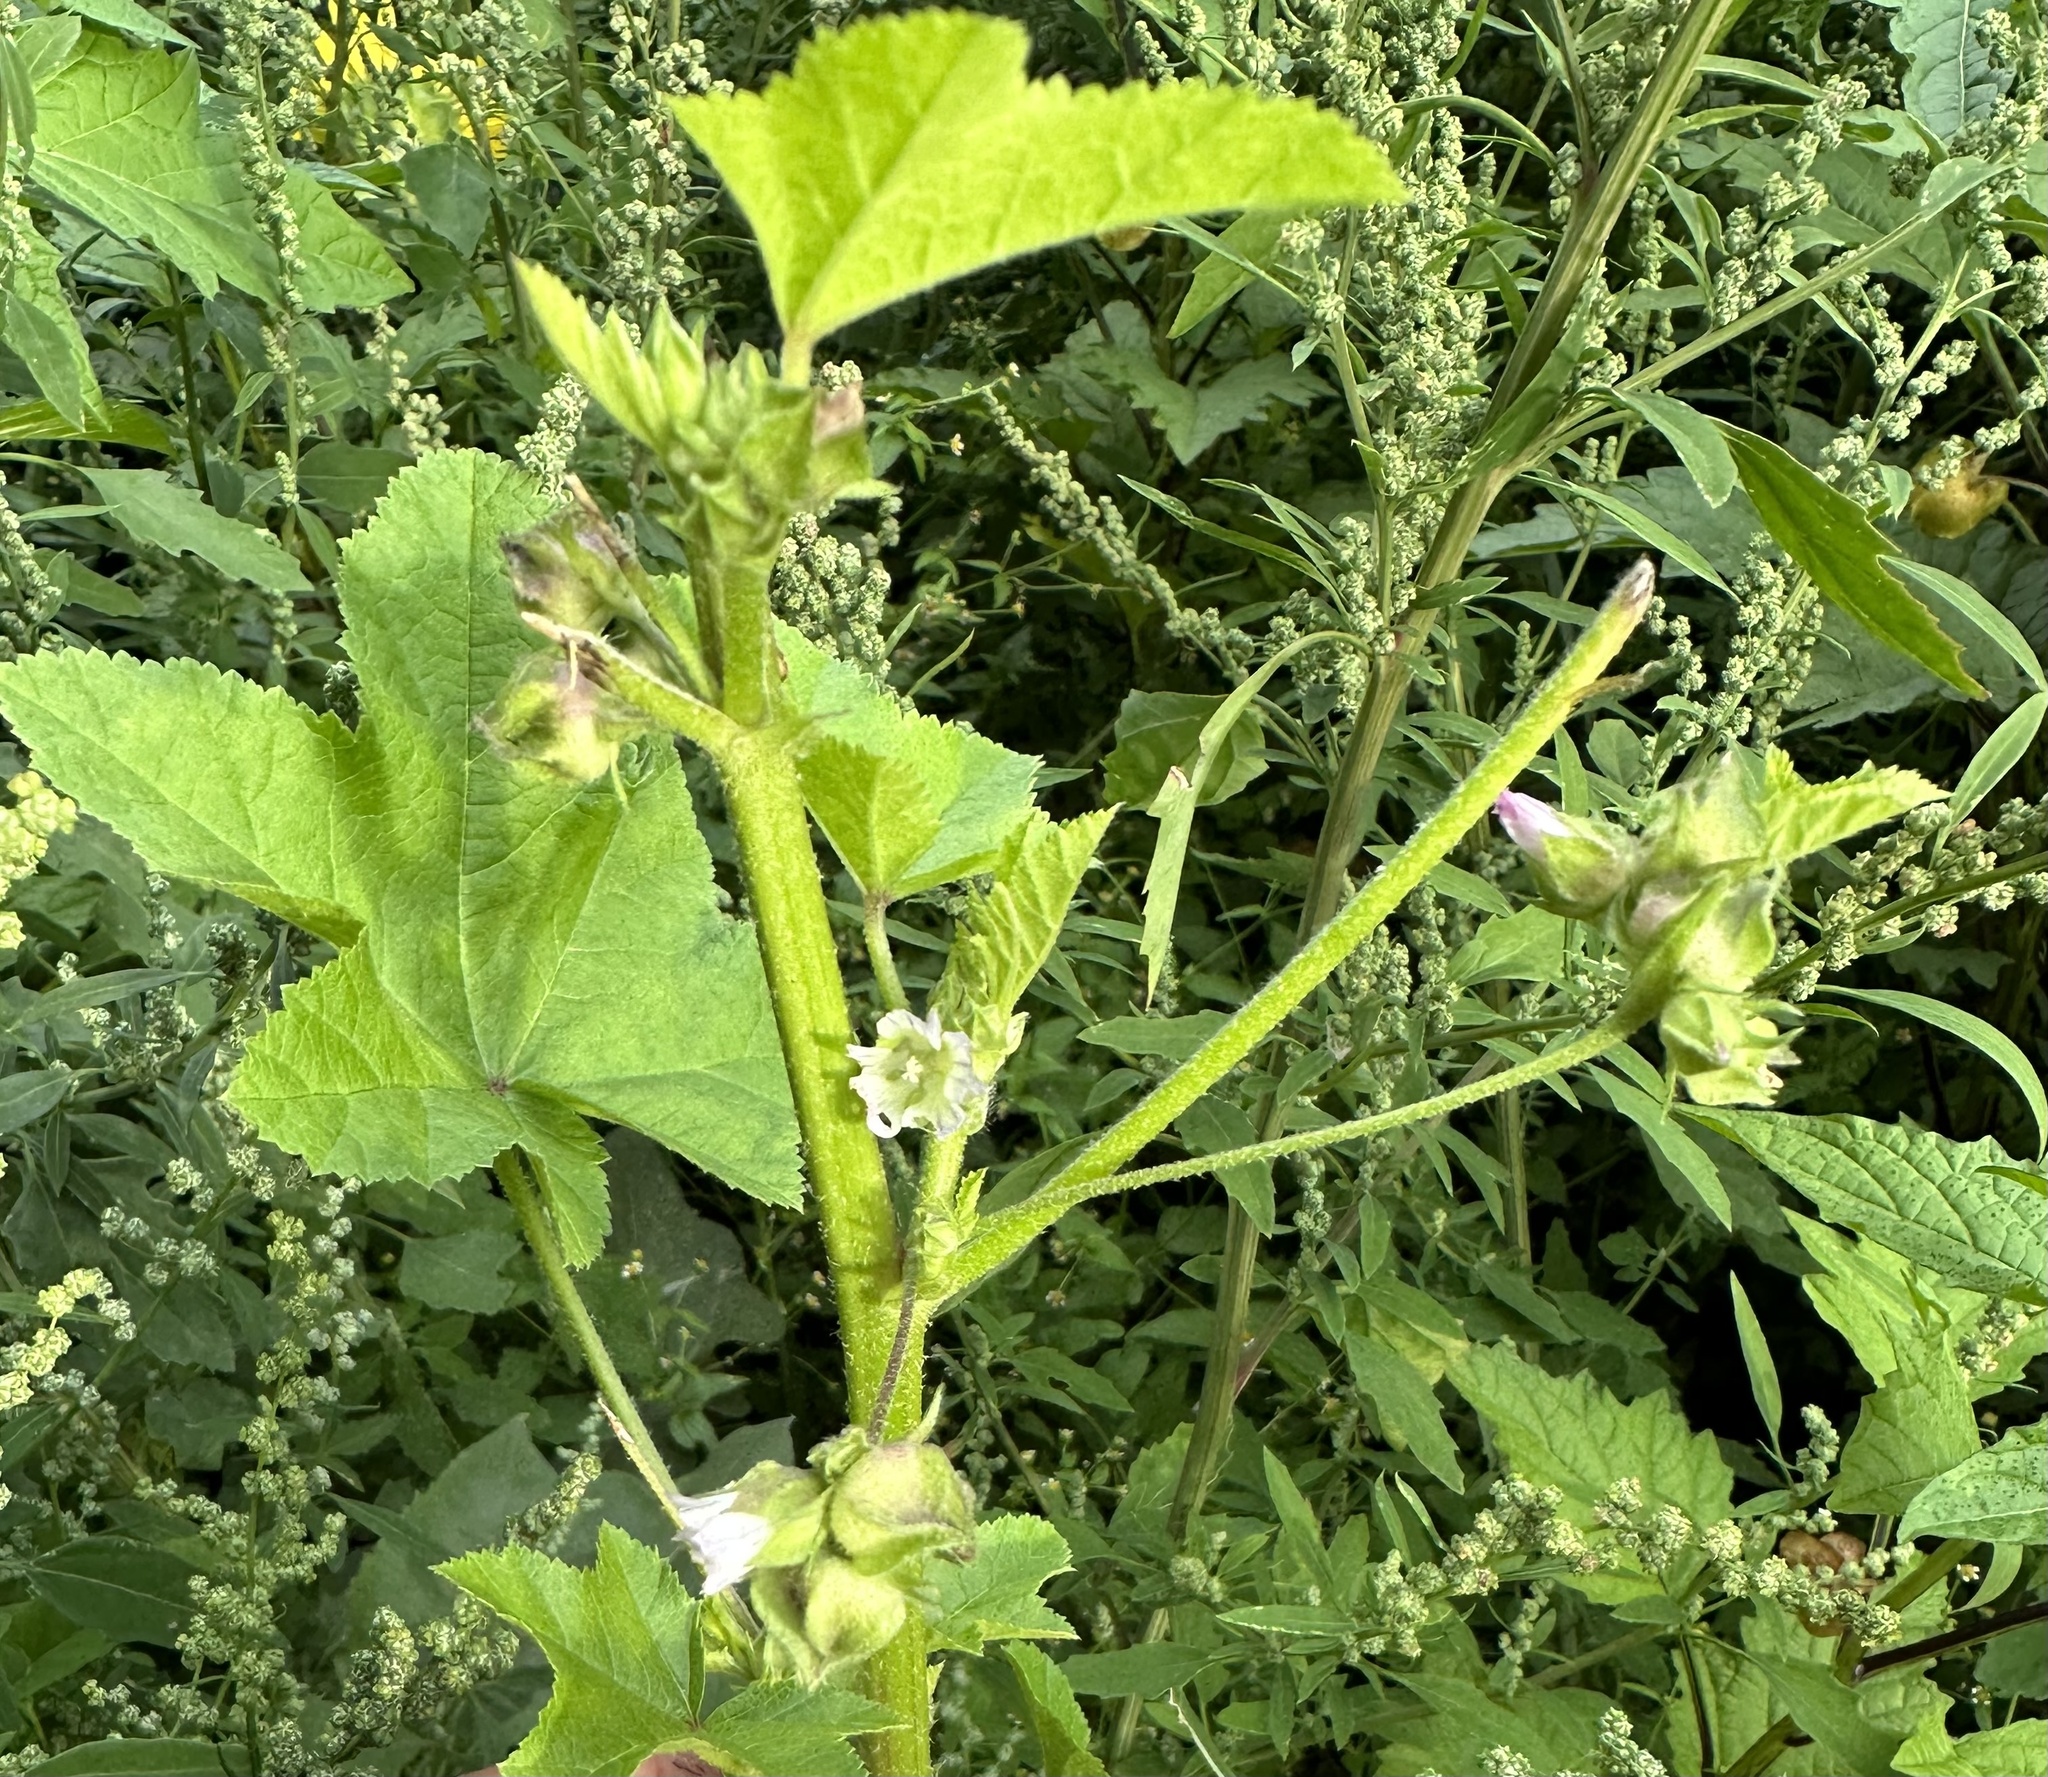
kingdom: Plantae
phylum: Tracheophyta
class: Magnoliopsida
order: Malvales
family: Malvaceae
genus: Malva
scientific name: Malva verticillata
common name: Chinese mallow
